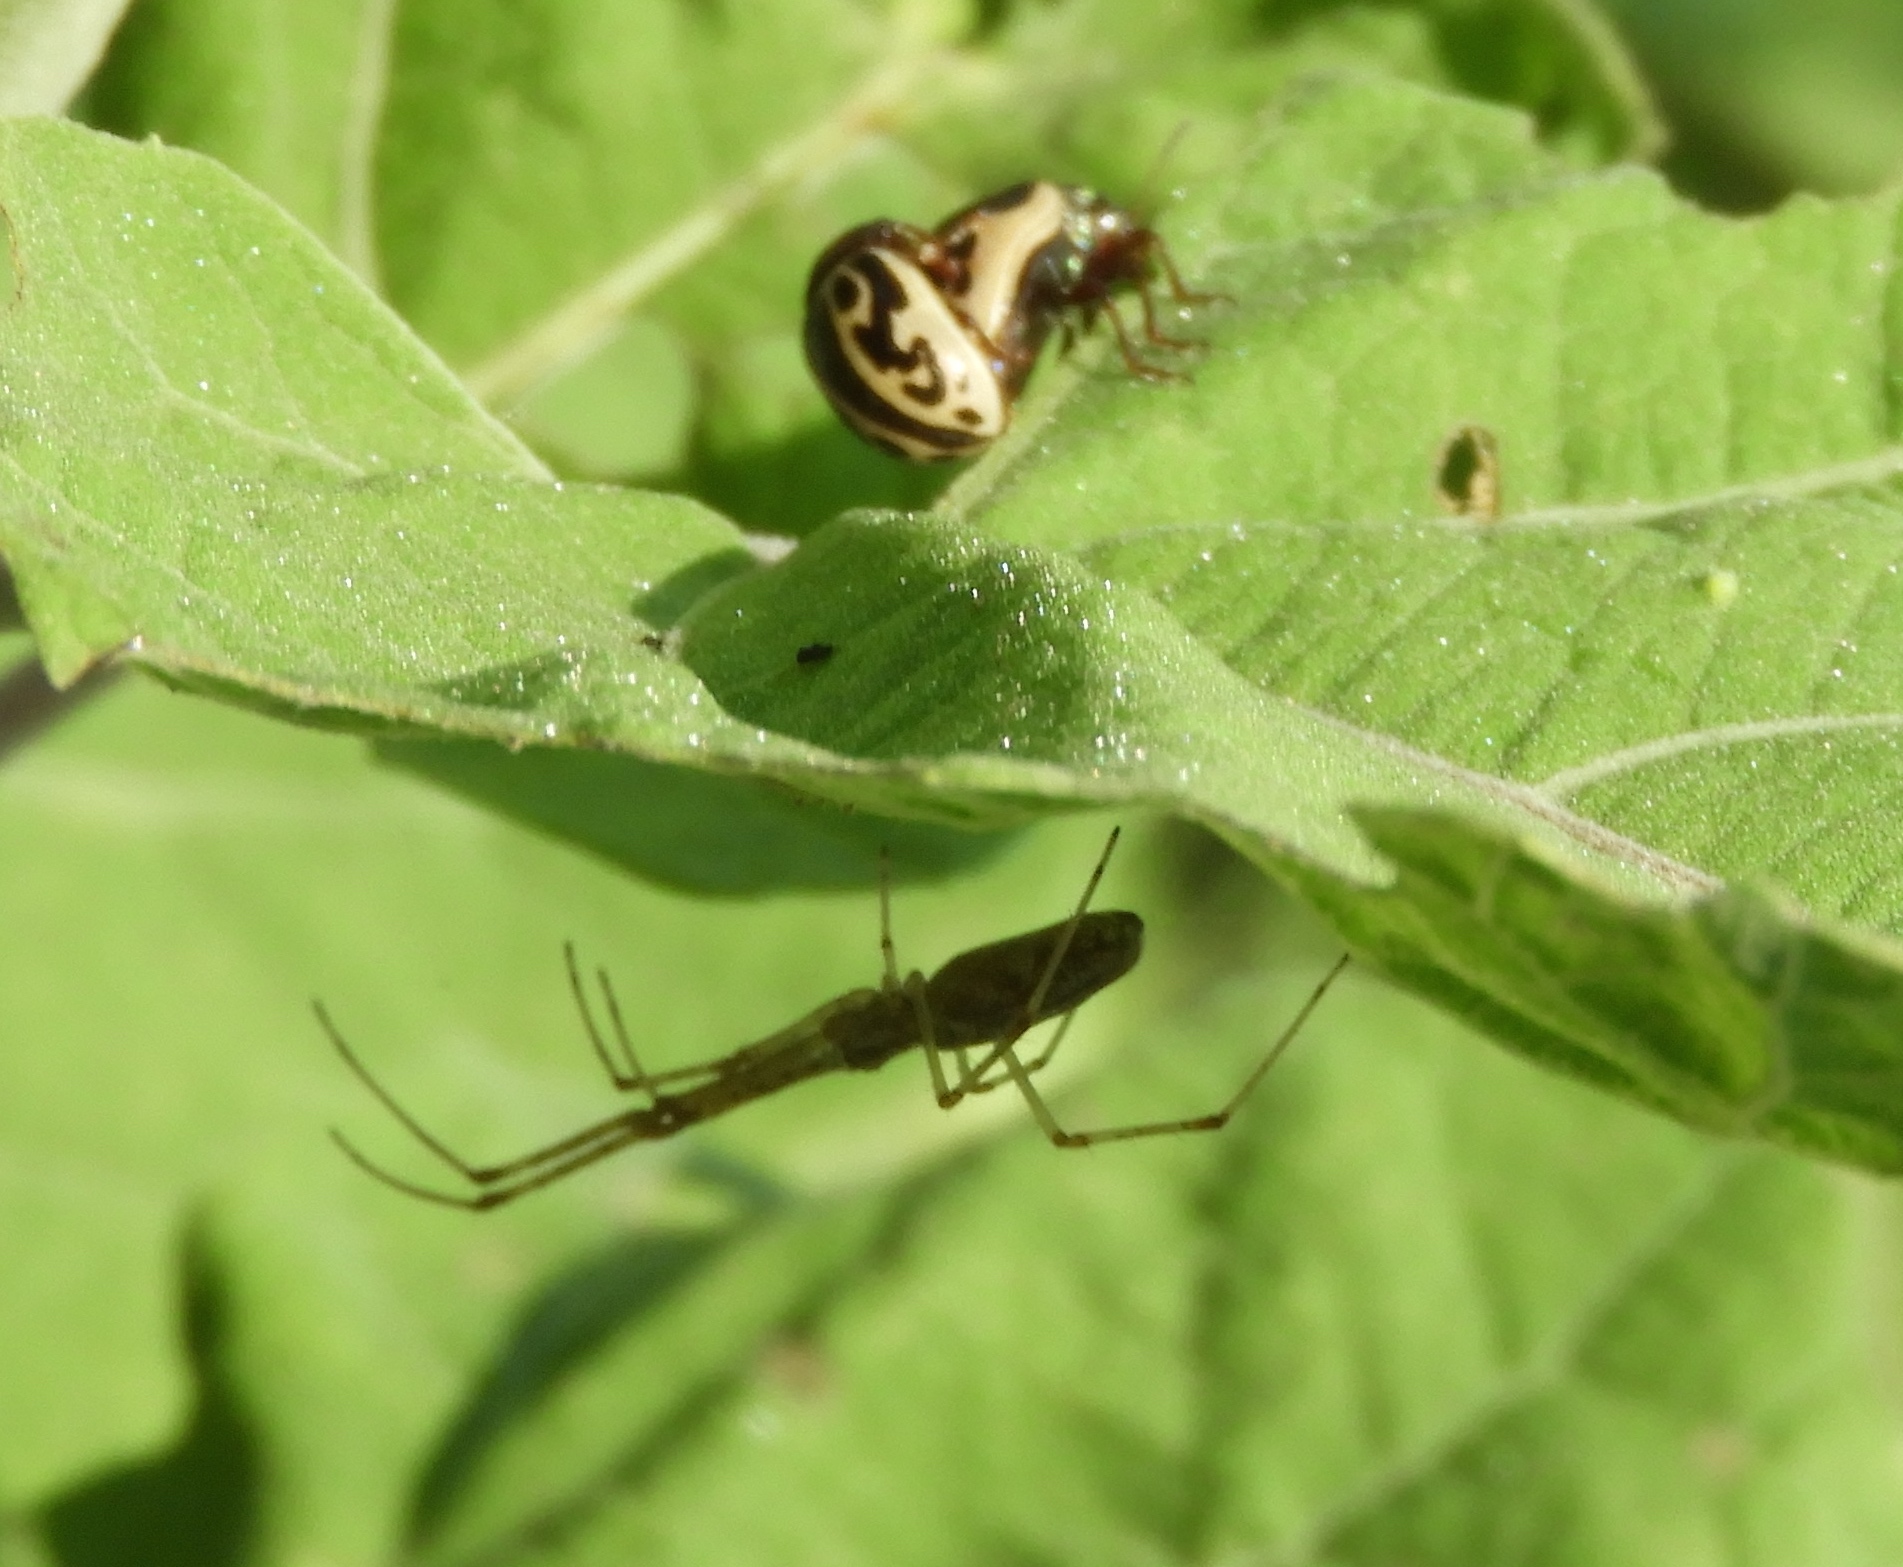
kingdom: Animalia
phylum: Arthropoda
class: Insecta
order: Coleoptera
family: Chrysomelidae
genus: Calligrapha
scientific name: Calligrapha
